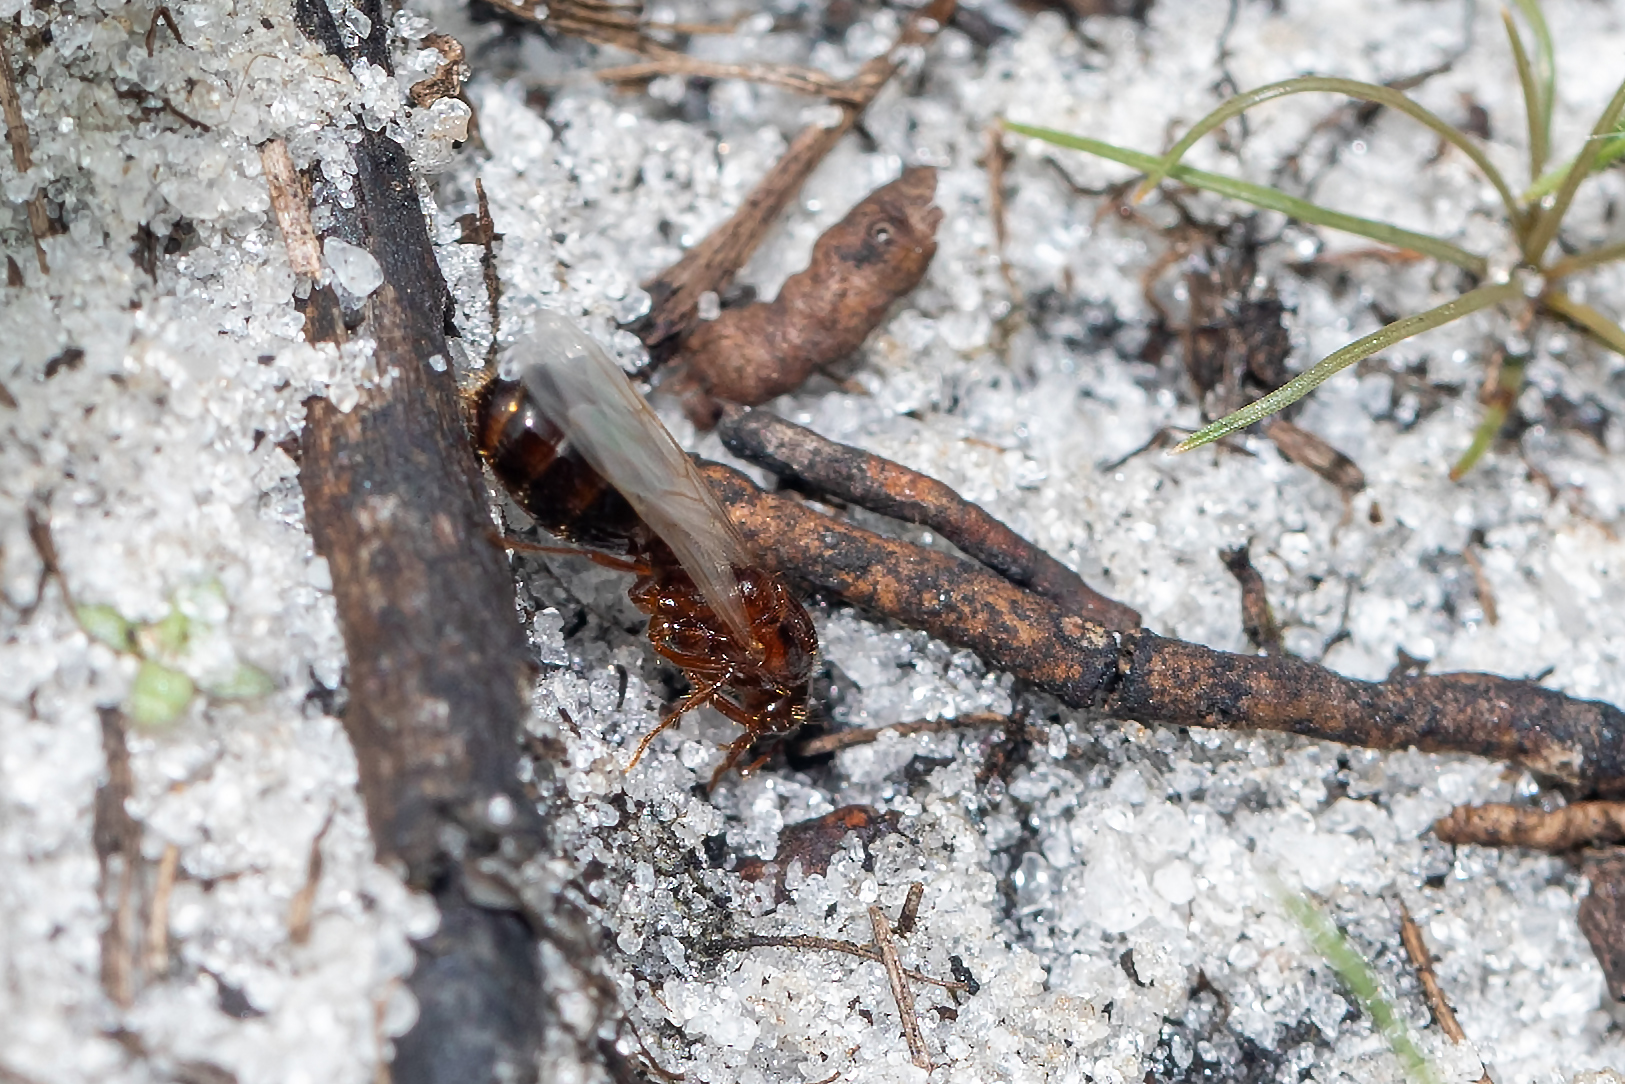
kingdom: Animalia
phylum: Arthropoda
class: Insecta
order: Hymenoptera
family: Formicidae
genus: Solenopsis
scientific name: Solenopsis invicta
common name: Red imported fire ant
